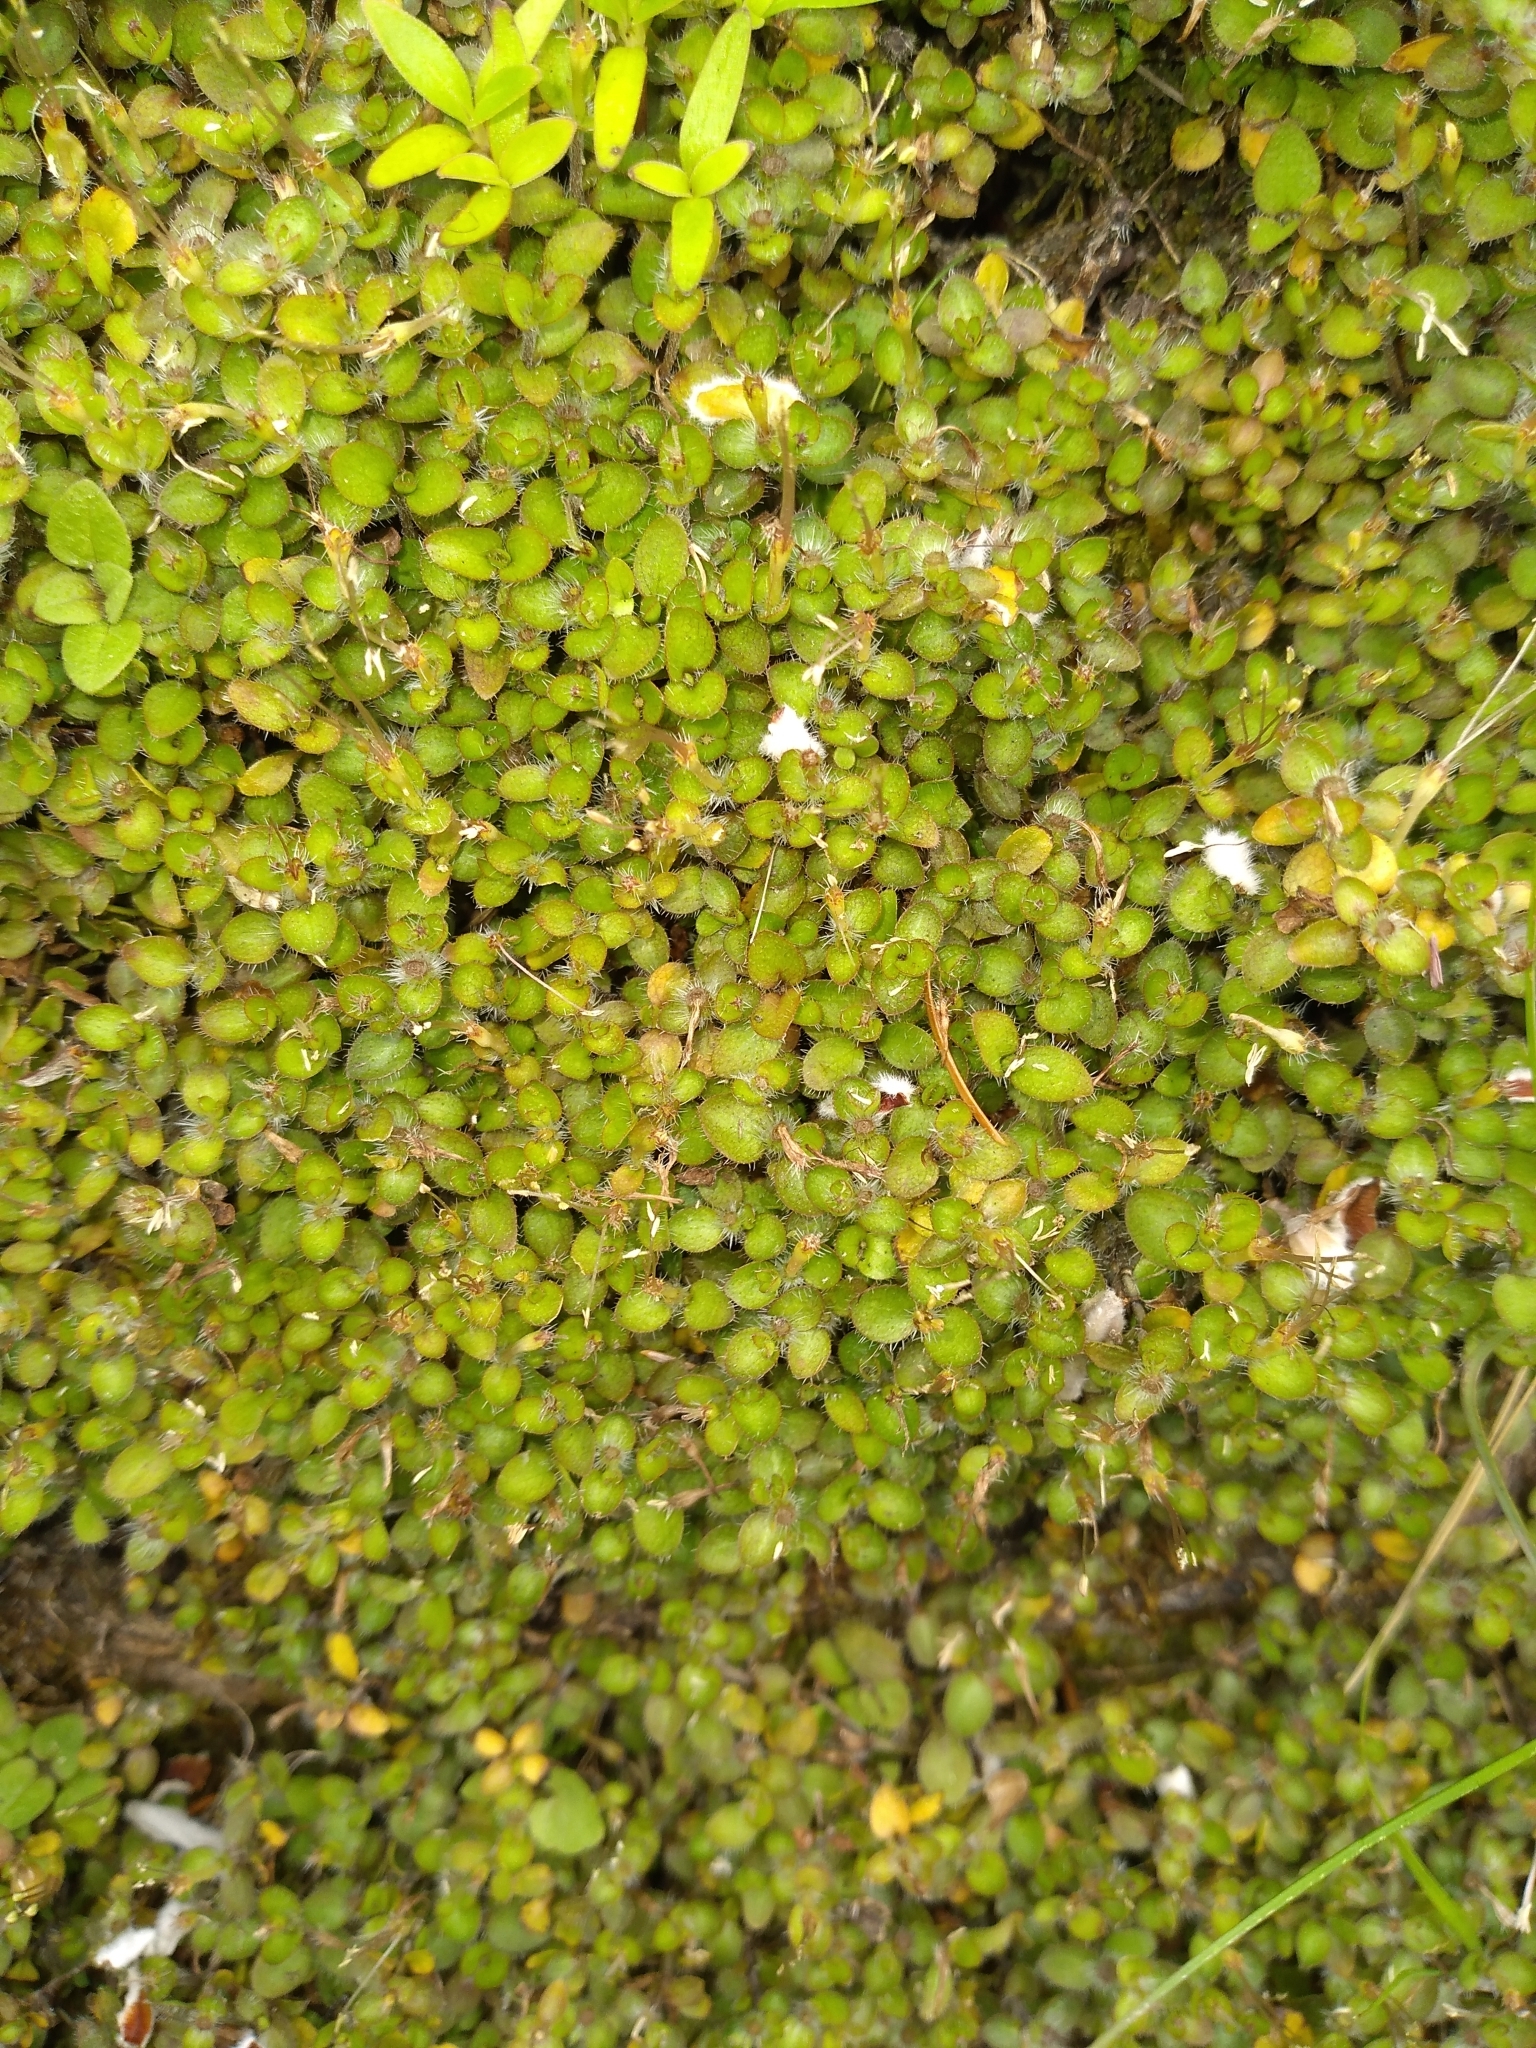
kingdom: Plantae
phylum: Tracheophyta
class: Magnoliopsida
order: Gentianales
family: Rubiaceae
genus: Leptostigma
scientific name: Leptostigma setulosum
